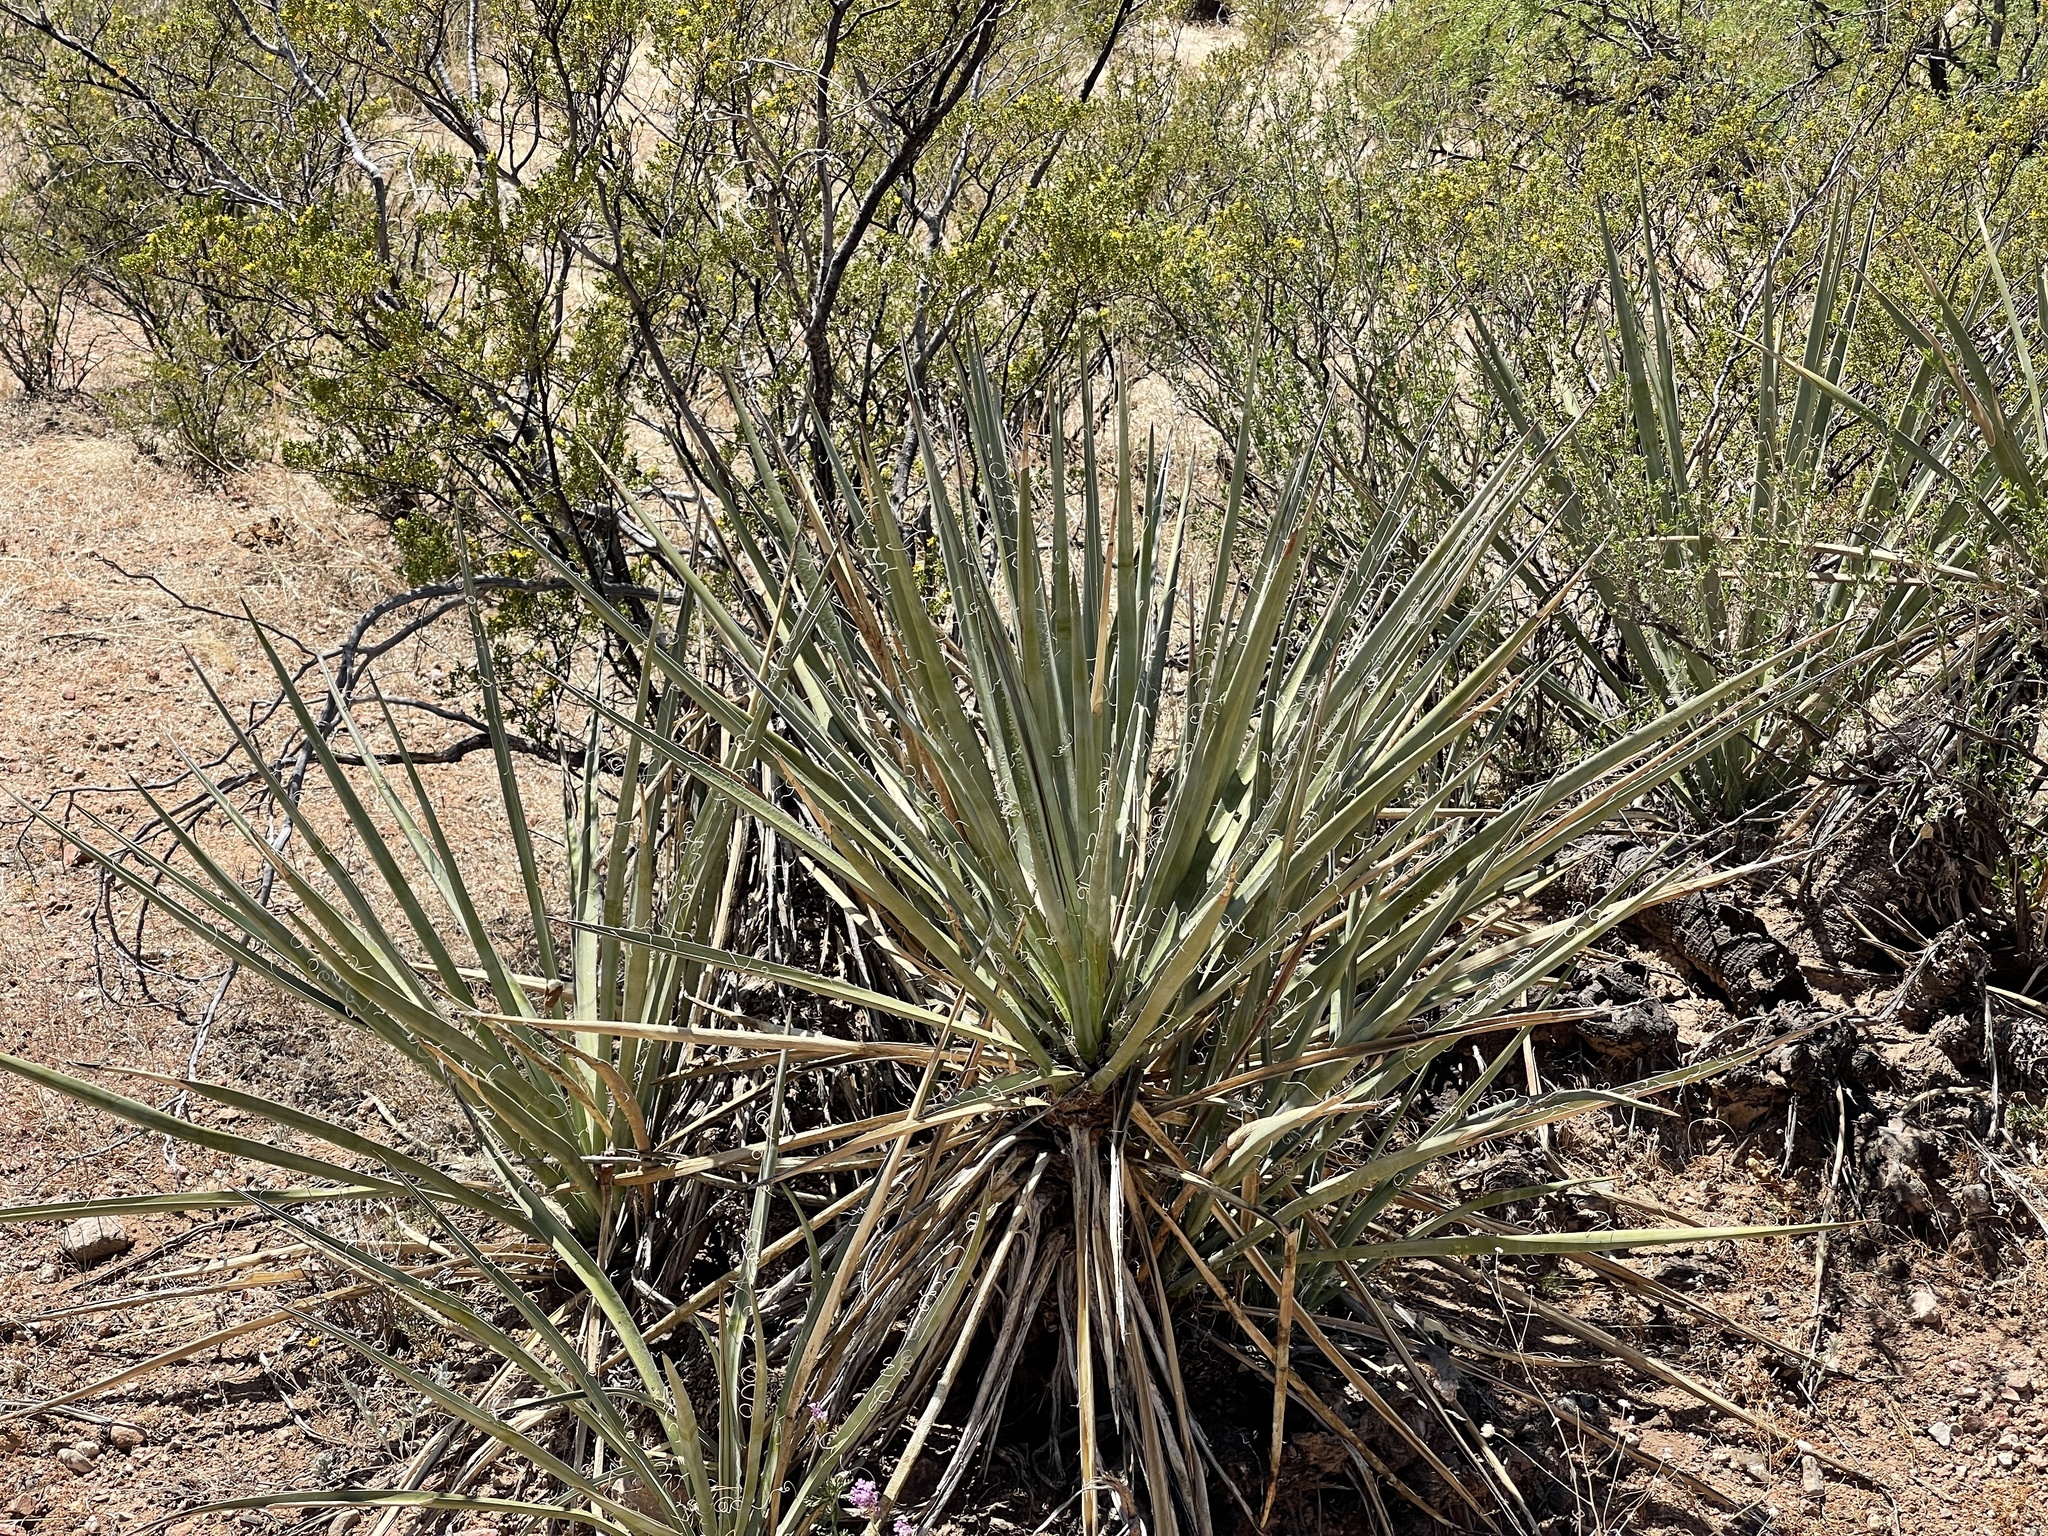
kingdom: Plantae
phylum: Tracheophyta
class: Liliopsida
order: Asparagales
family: Asparagaceae
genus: Yucca
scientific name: Yucca baccata
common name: Banana yucca
